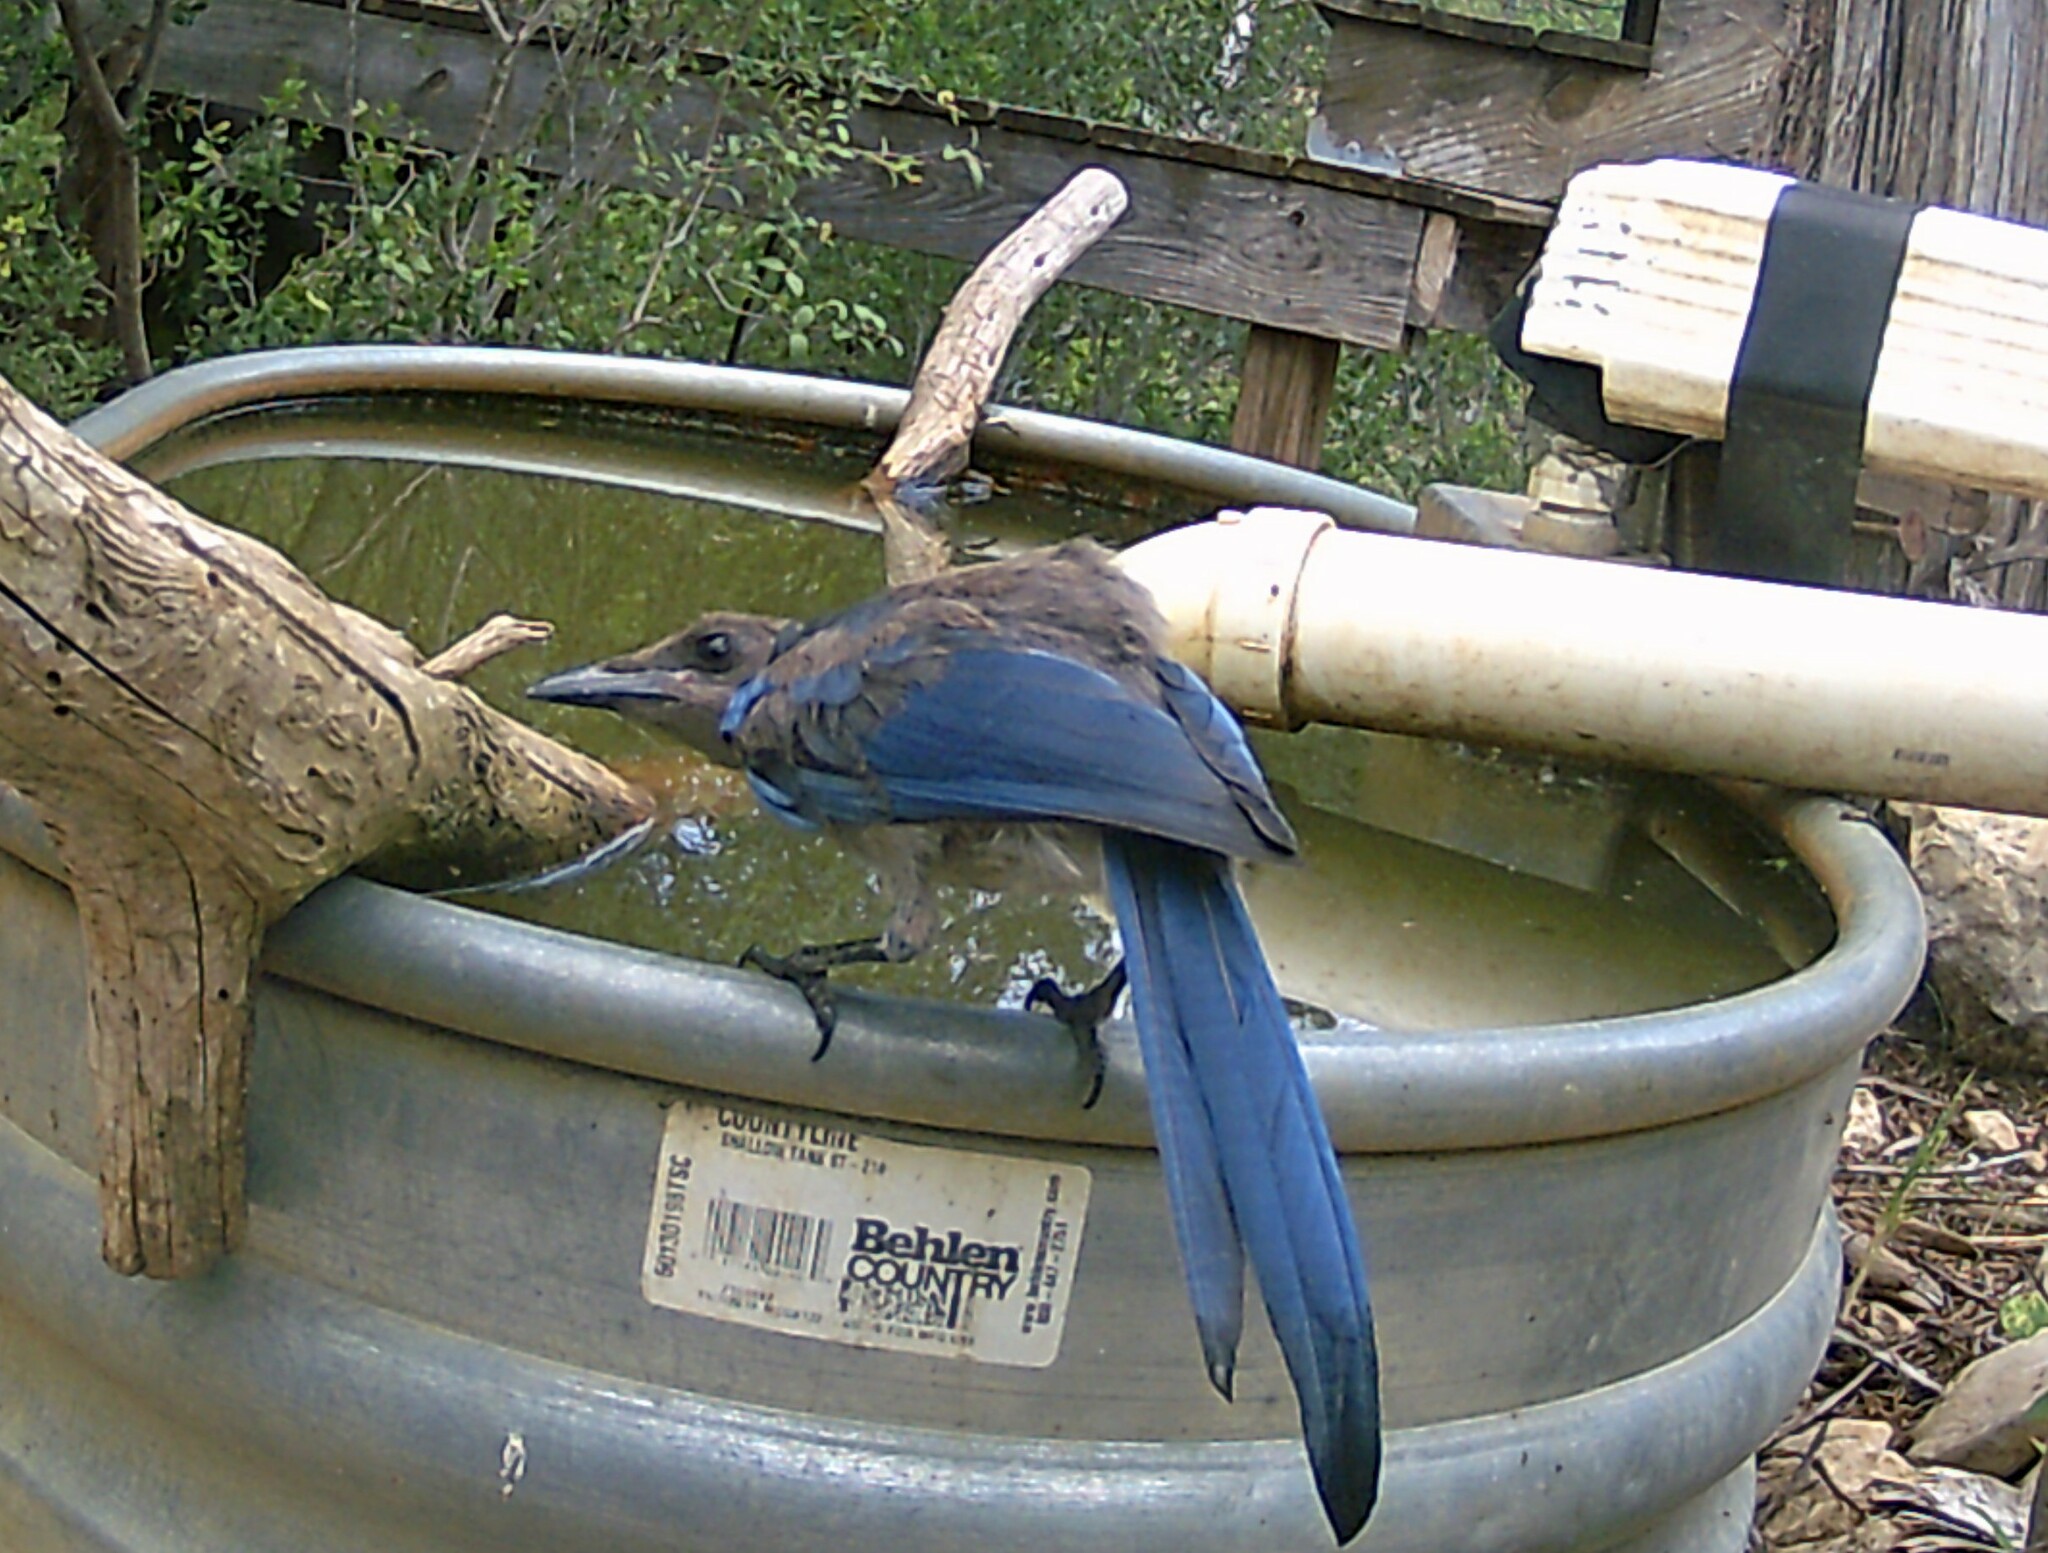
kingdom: Animalia
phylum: Chordata
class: Aves
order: Passeriformes
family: Corvidae
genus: Aphelocoma
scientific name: Aphelocoma woodhouseii
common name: Woodhouse's scrub-jay
